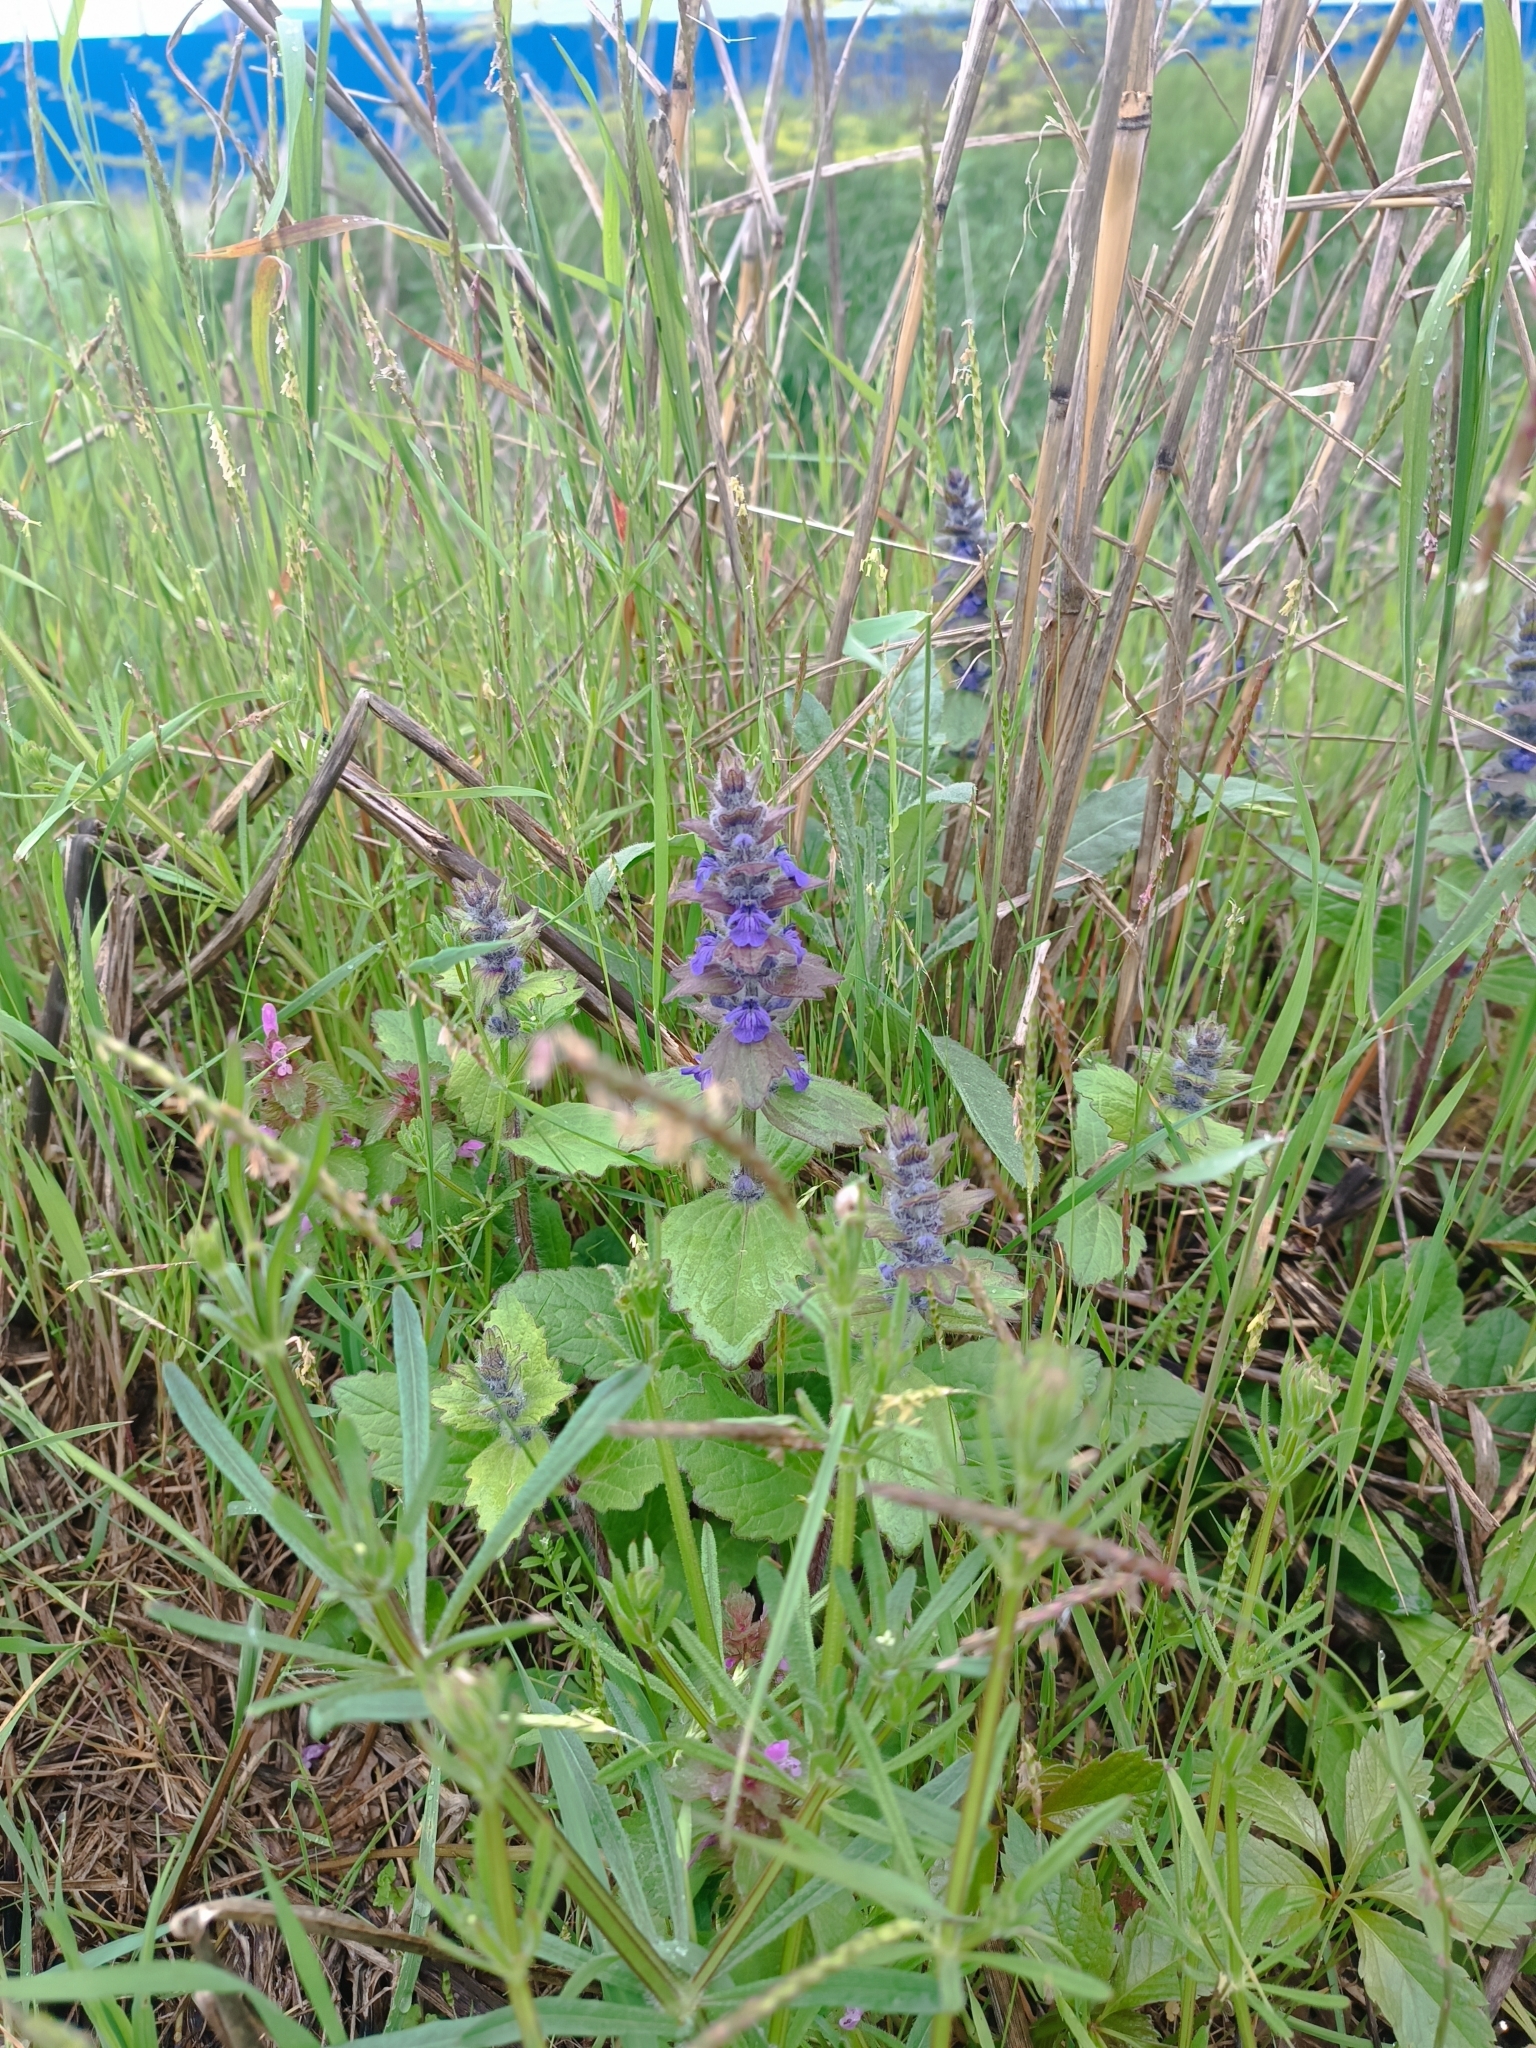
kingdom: Plantae
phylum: Tracheophyta
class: Magnoliopsida
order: Lamiales
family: Lamiaceae
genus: Ajuga
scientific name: Ajuga genevensis
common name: Blue bugle
